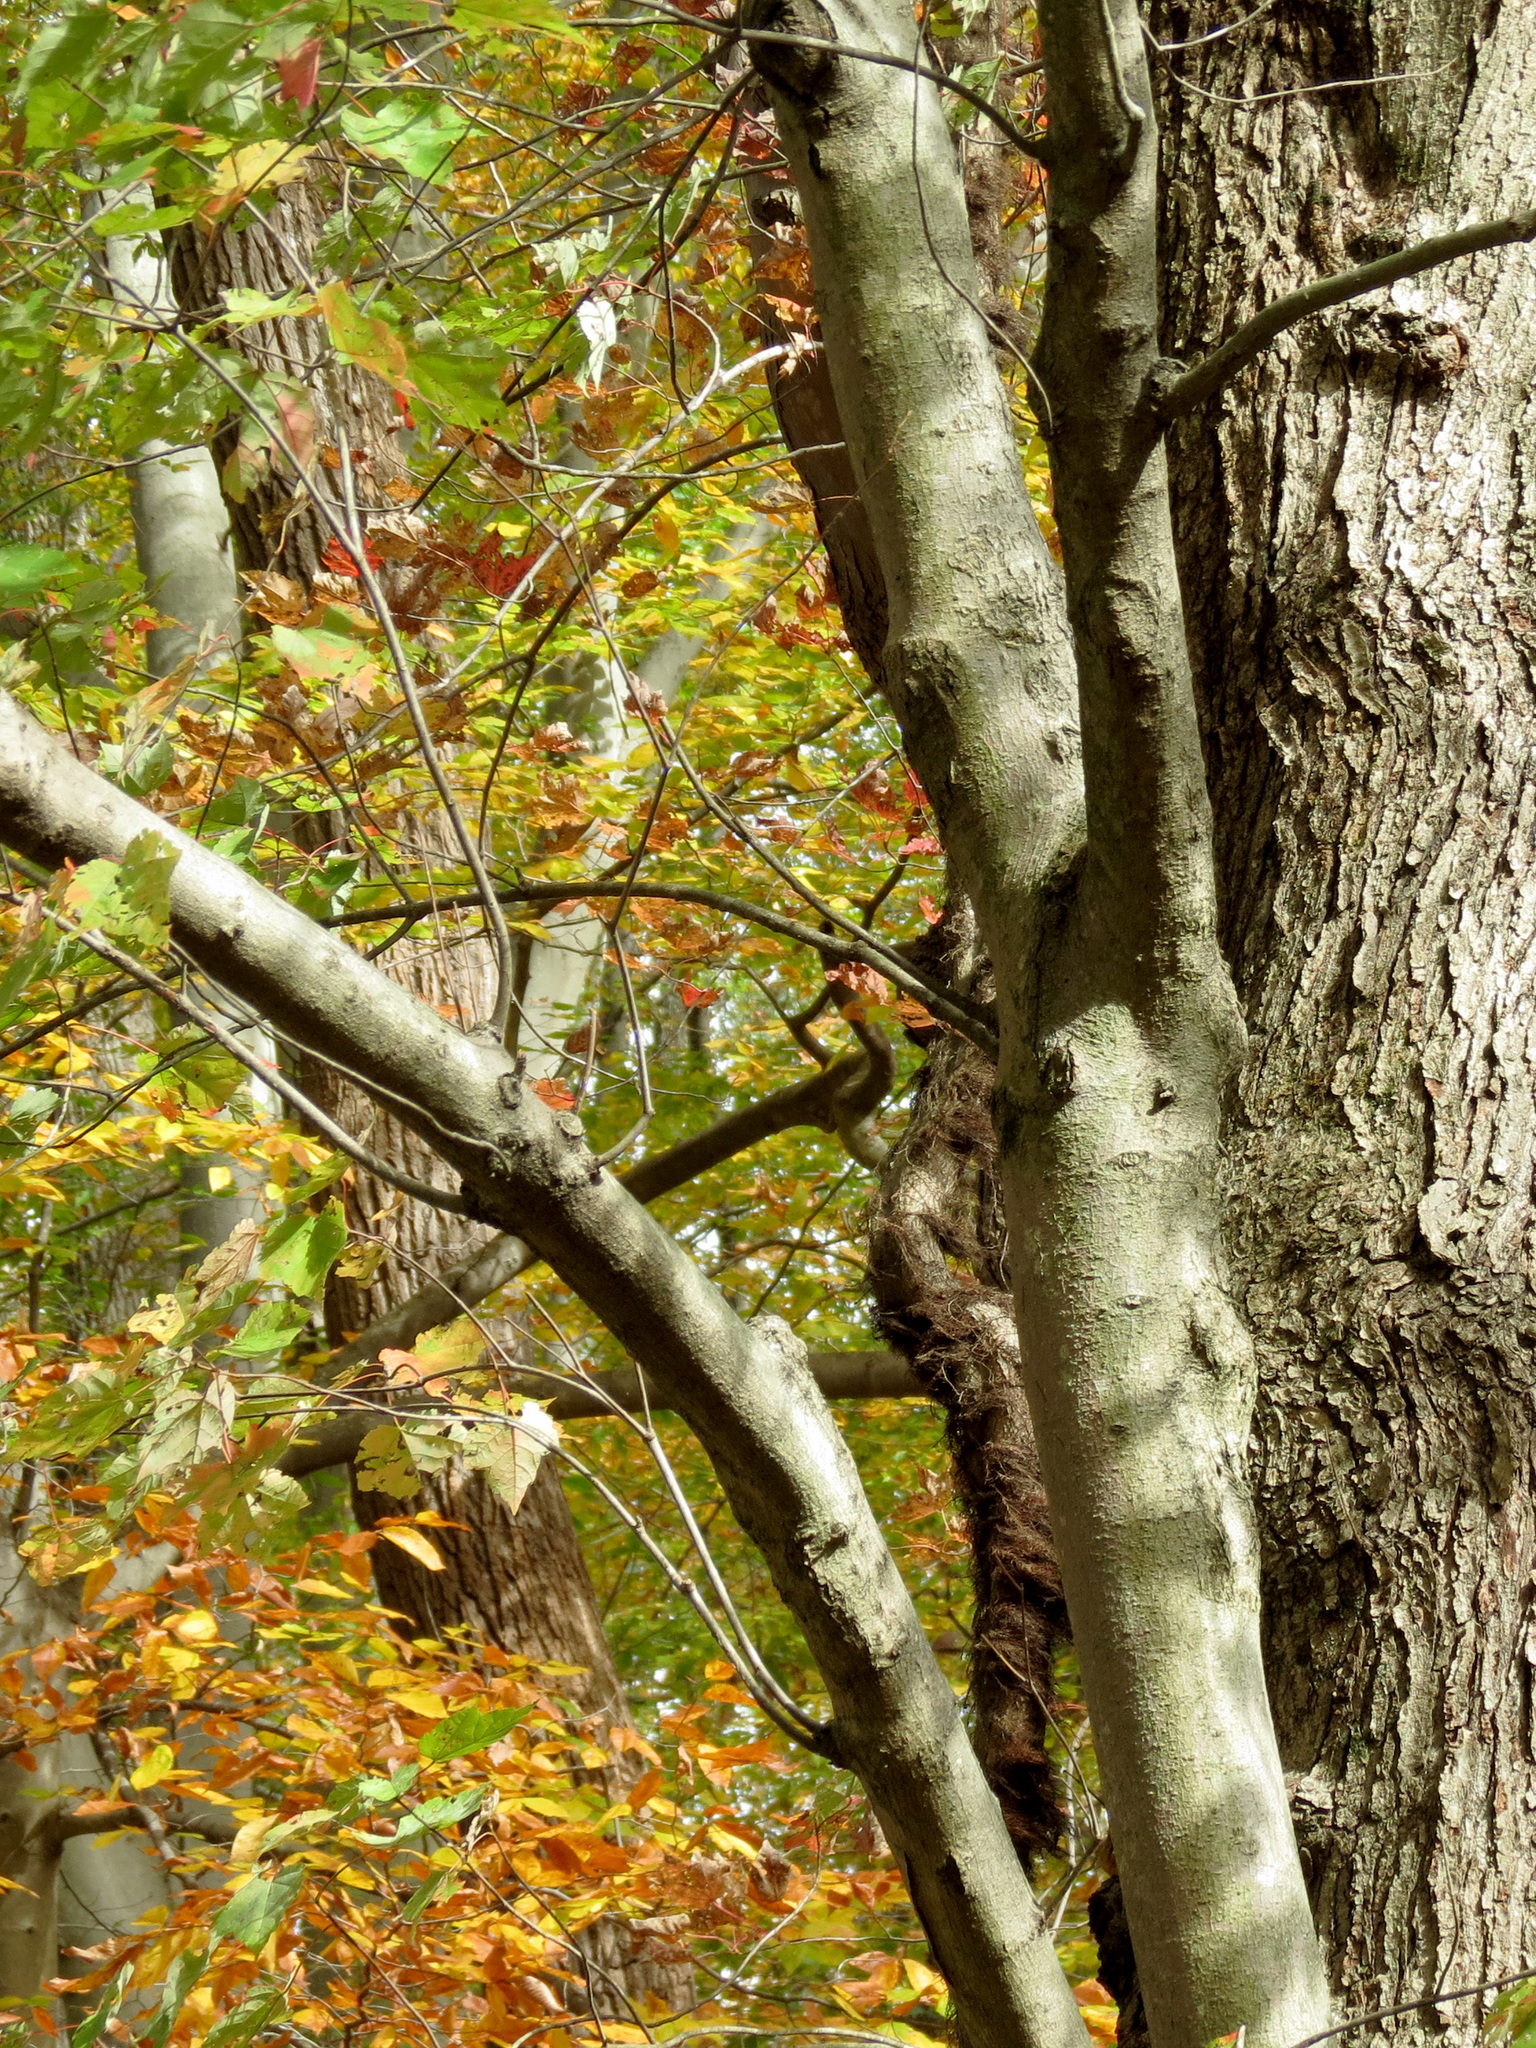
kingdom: Plantae
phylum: Tracheophyta
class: Magnoliopsida
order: Sapindales
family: Sapindaceae
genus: Acer
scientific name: Acer rubrum
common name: Red maple
